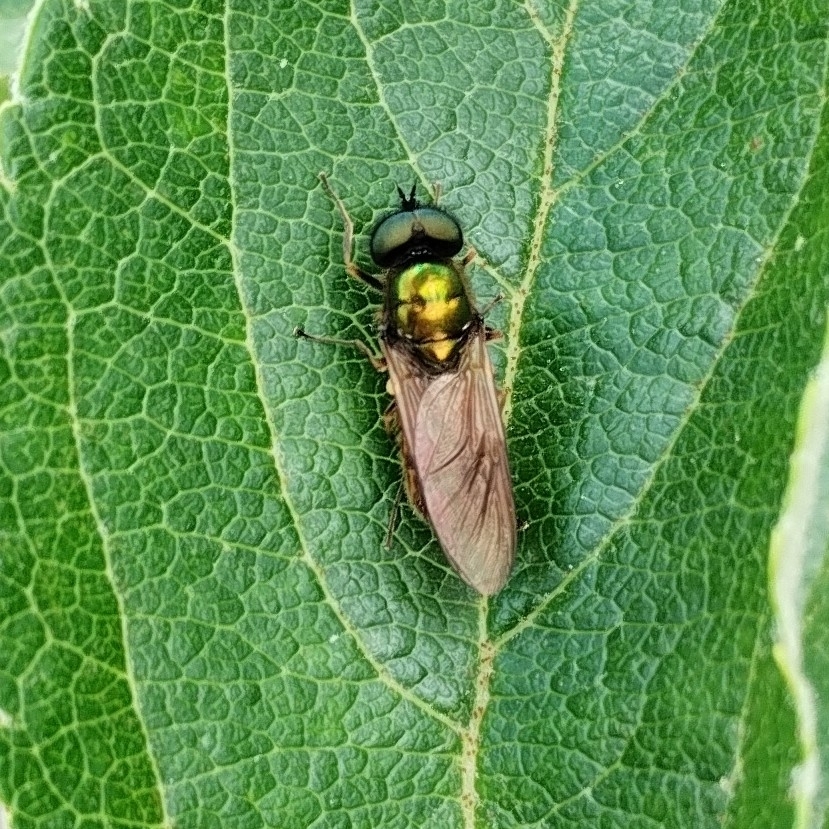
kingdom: Animalia
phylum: Arthropoda
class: Insecta
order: Diptera
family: Stratiomyidae
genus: Chloromyia
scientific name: Chloromyia formosa
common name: Soldier fly
